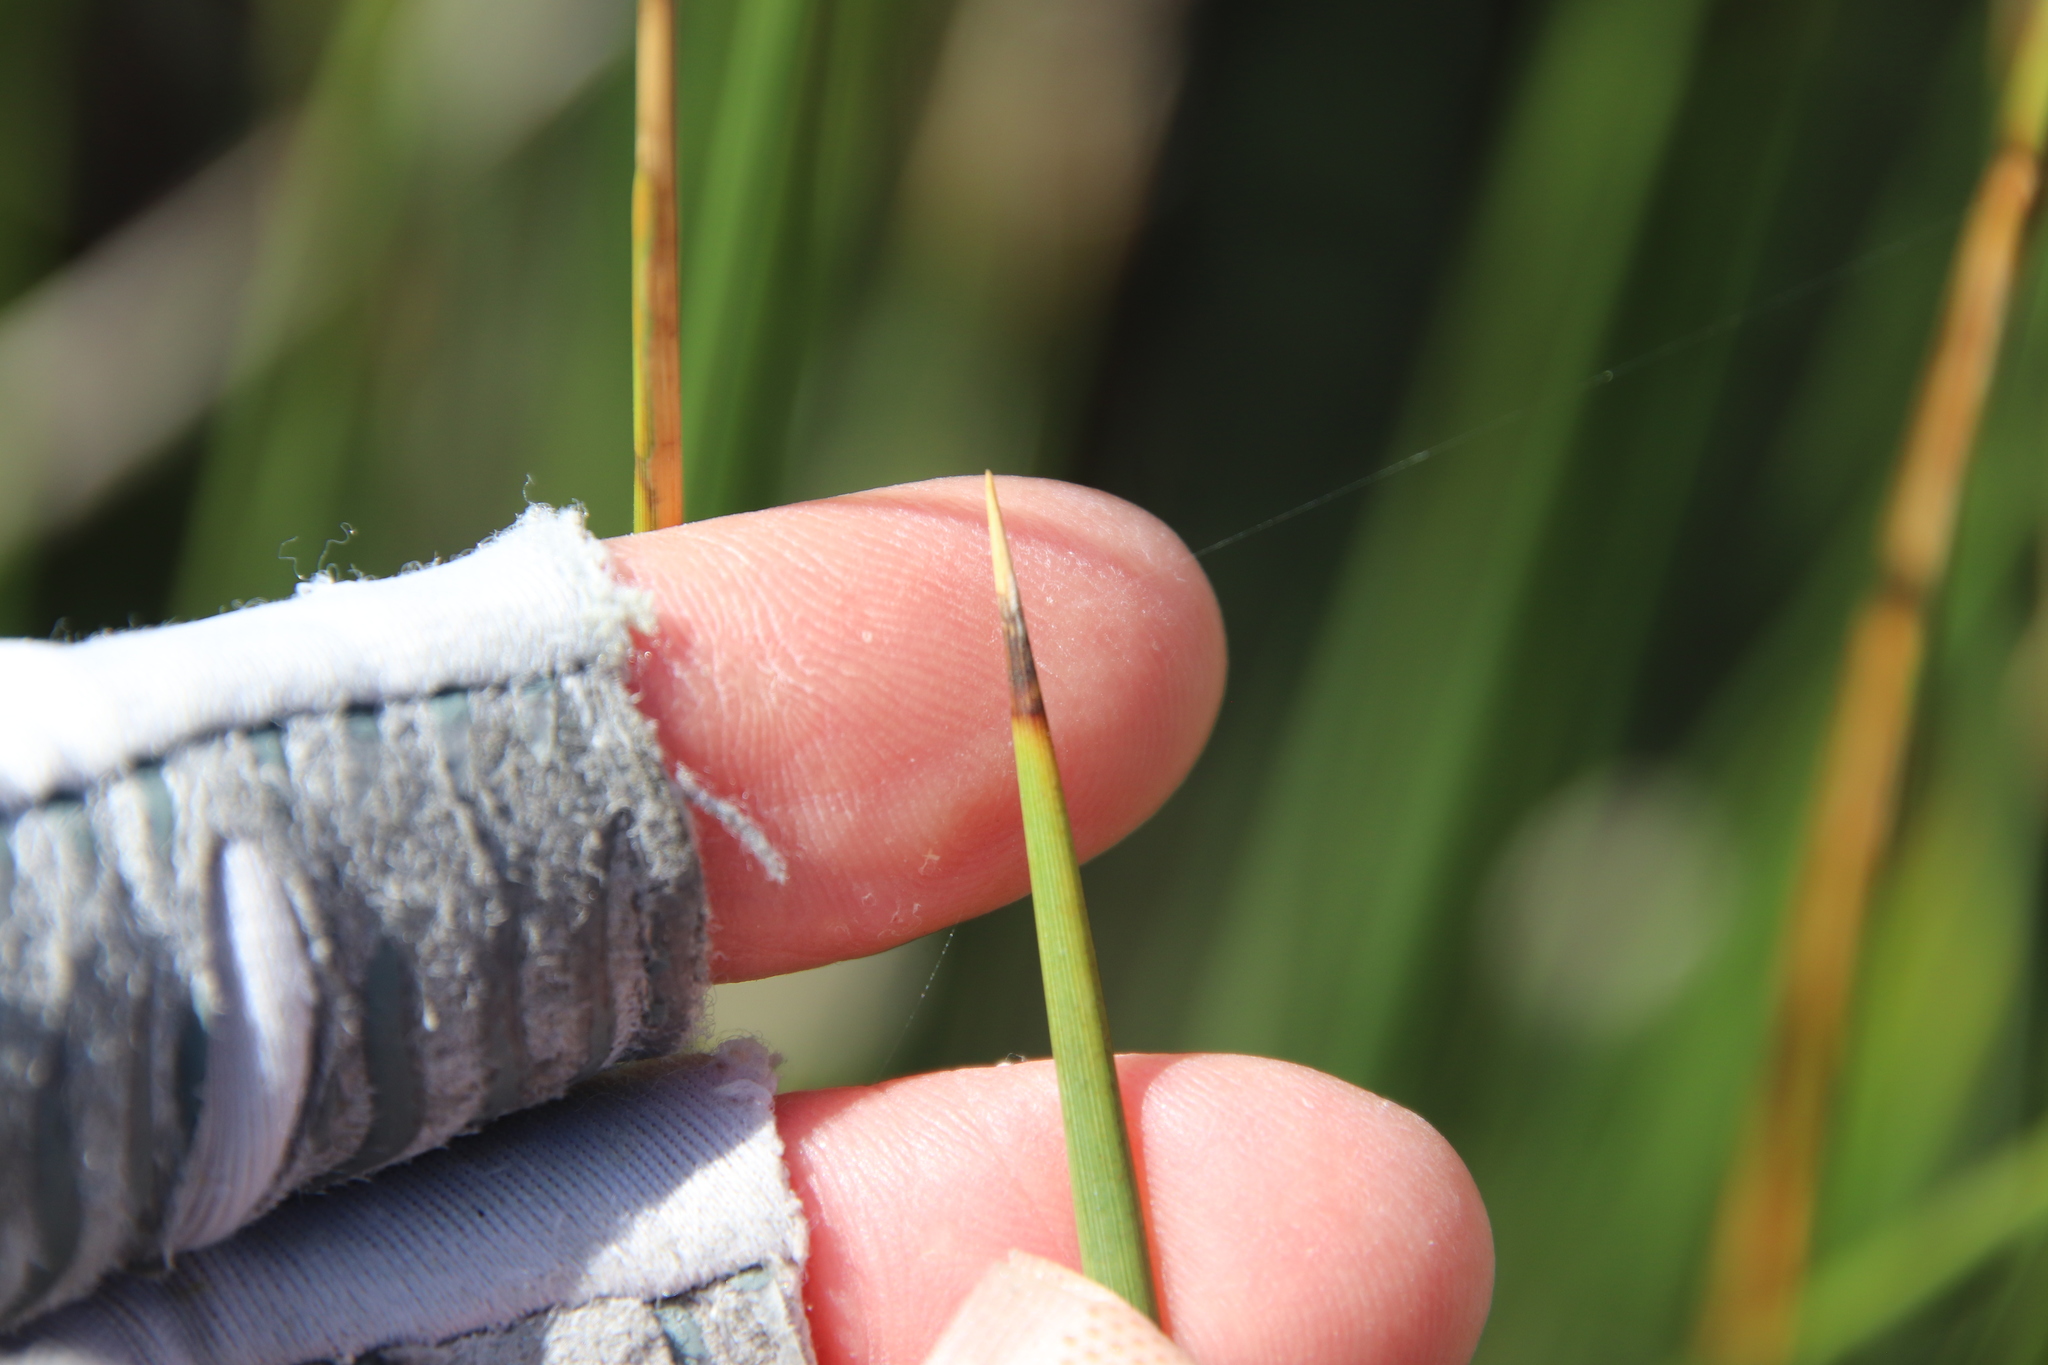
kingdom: Plantae
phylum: Tracheophyta
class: Liliopsida
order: Poales
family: Juncaceae
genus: Juncus
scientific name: Juncus acutus
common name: Sharp rush
